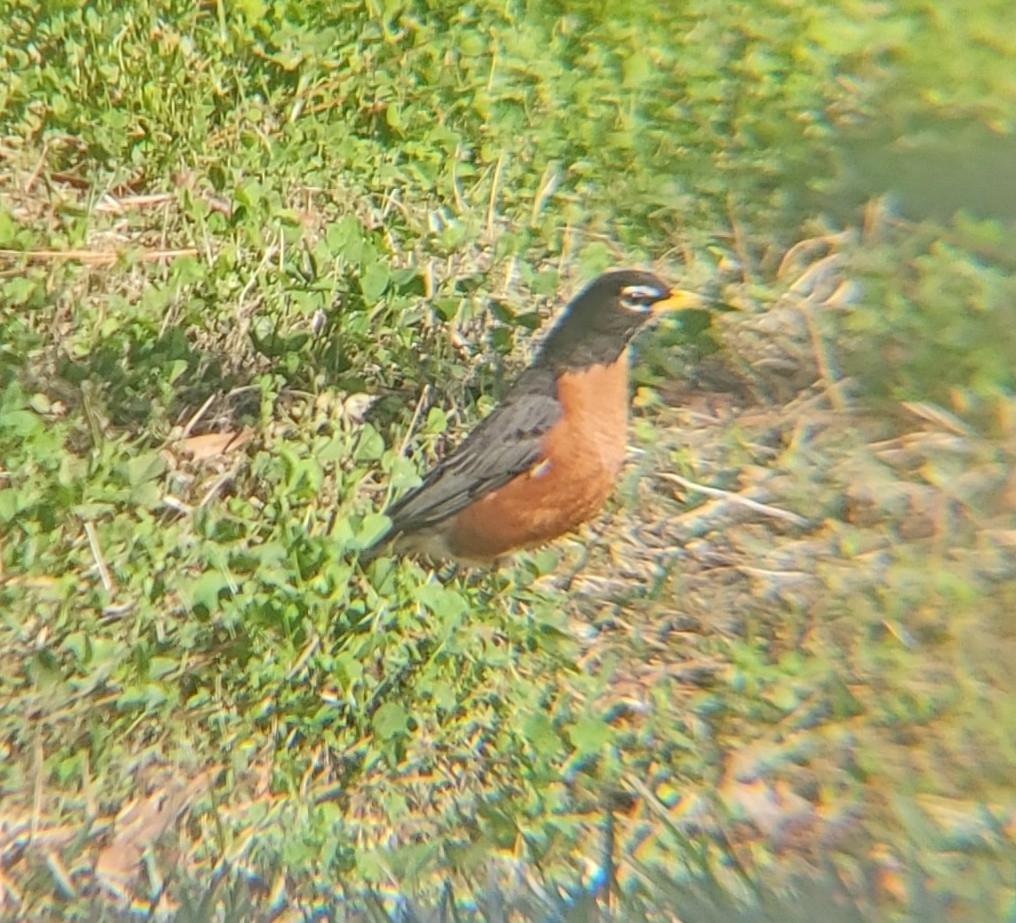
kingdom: Animalia
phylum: Chordata
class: Aves
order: Passeriformes
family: Turdidae
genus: Turdus
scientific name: Turdus migratorius
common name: American robin
